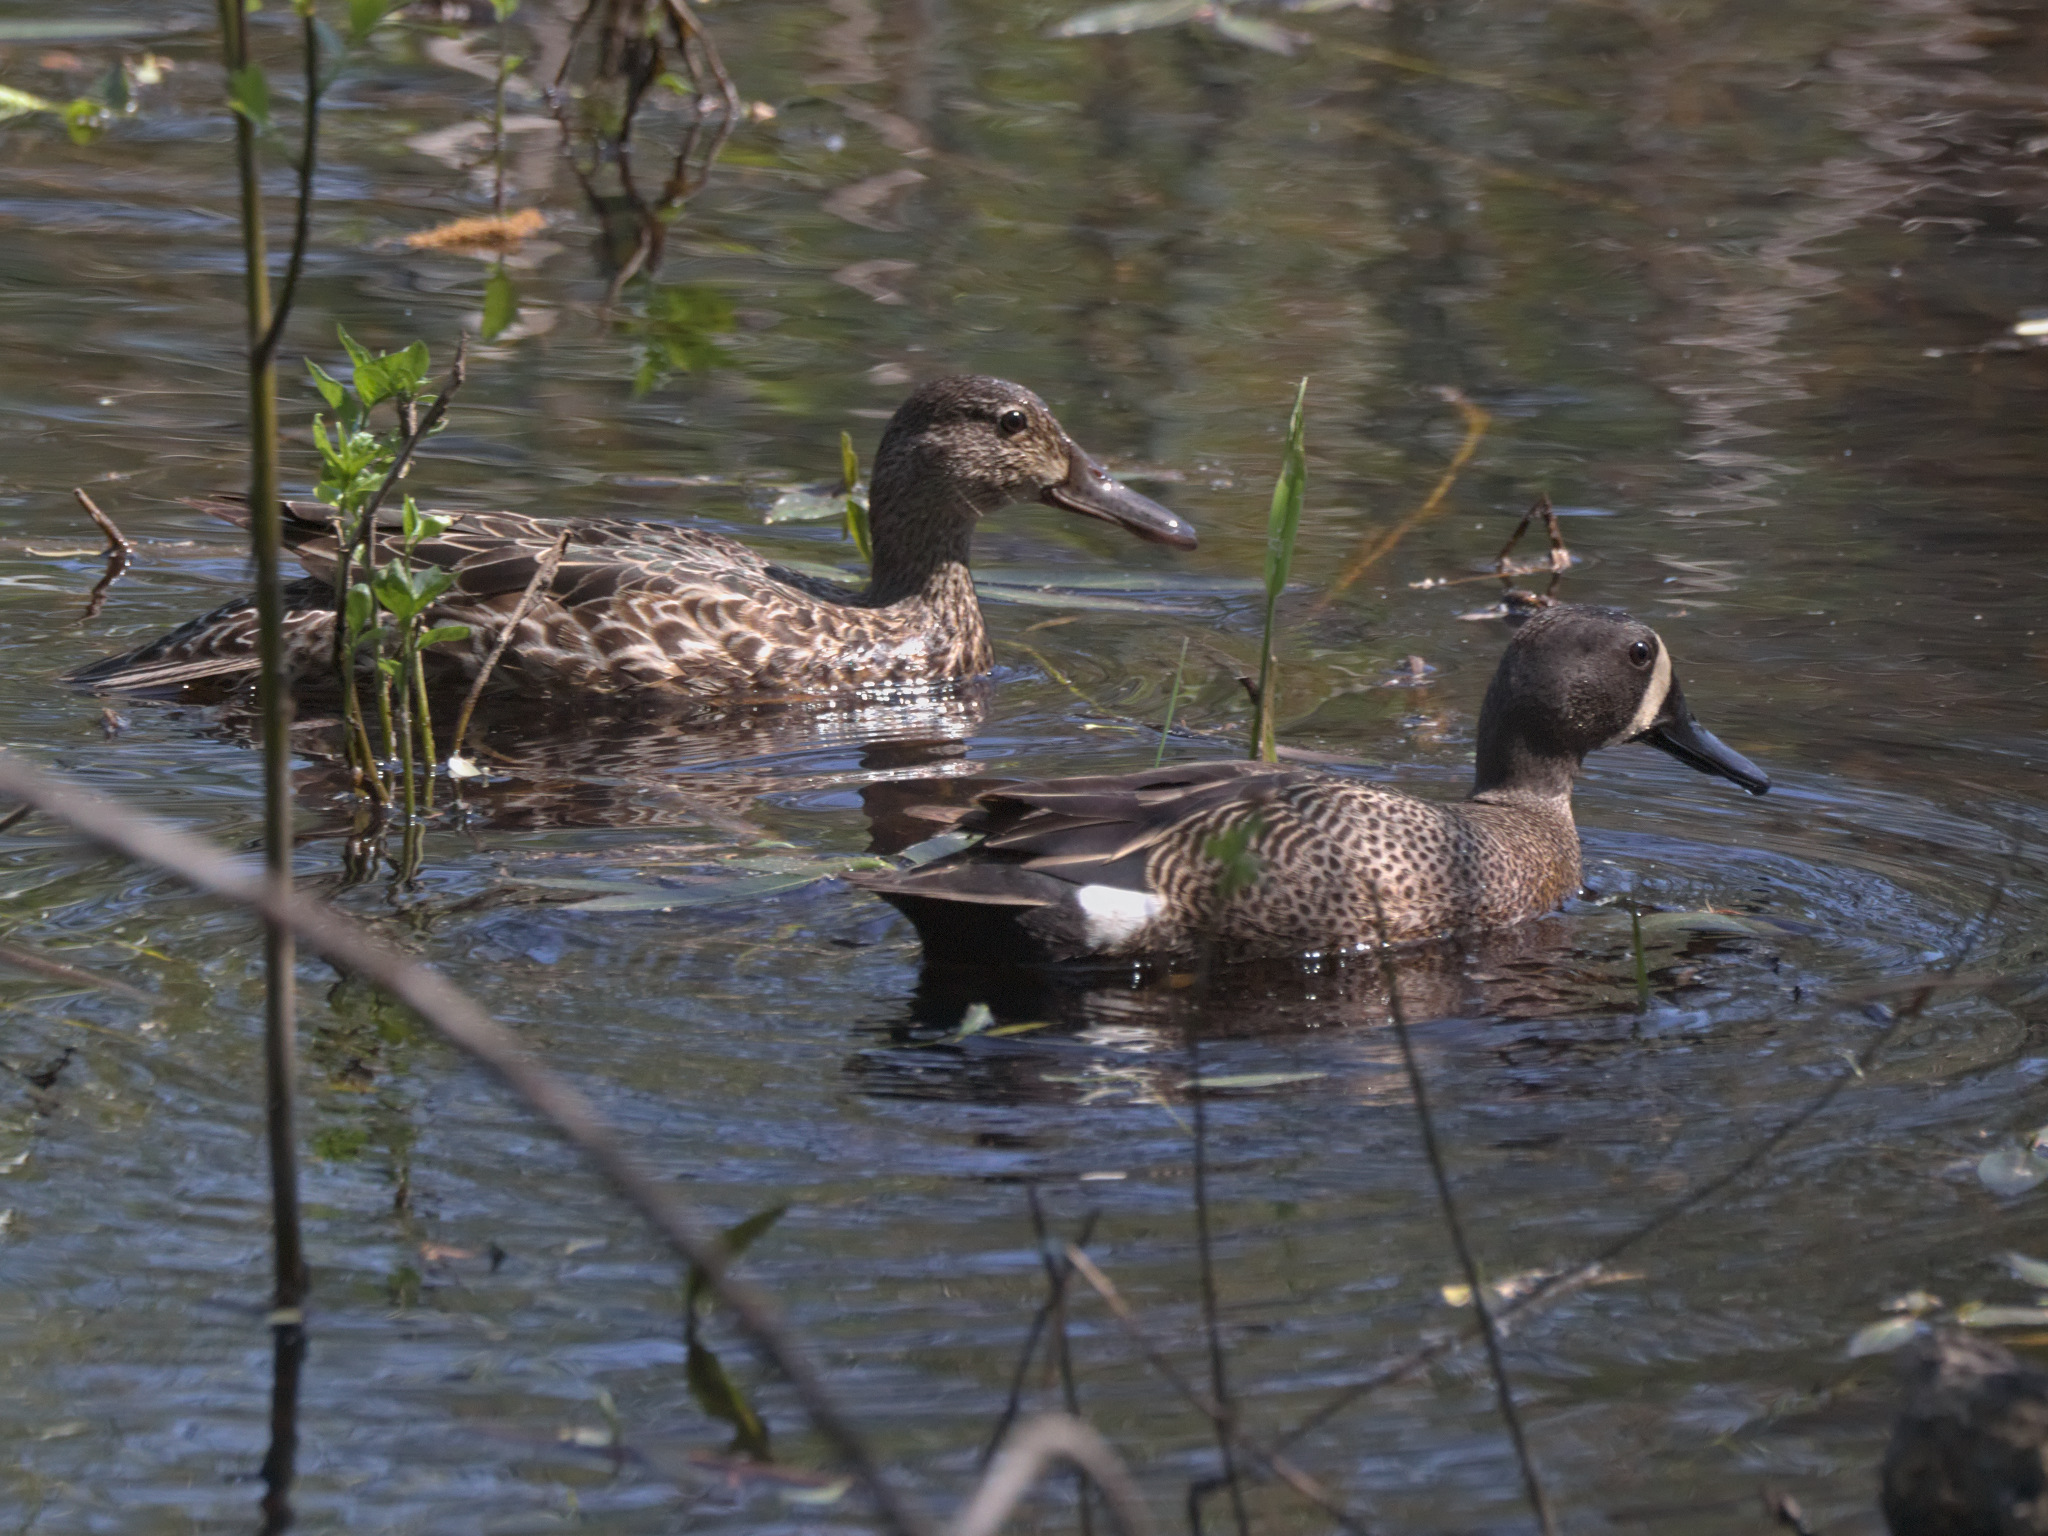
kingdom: Animalia
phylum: Chordata
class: Aves
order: Anseriformes
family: Anatidae
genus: Spatula
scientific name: Spatula discors
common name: Blue-winged teal
